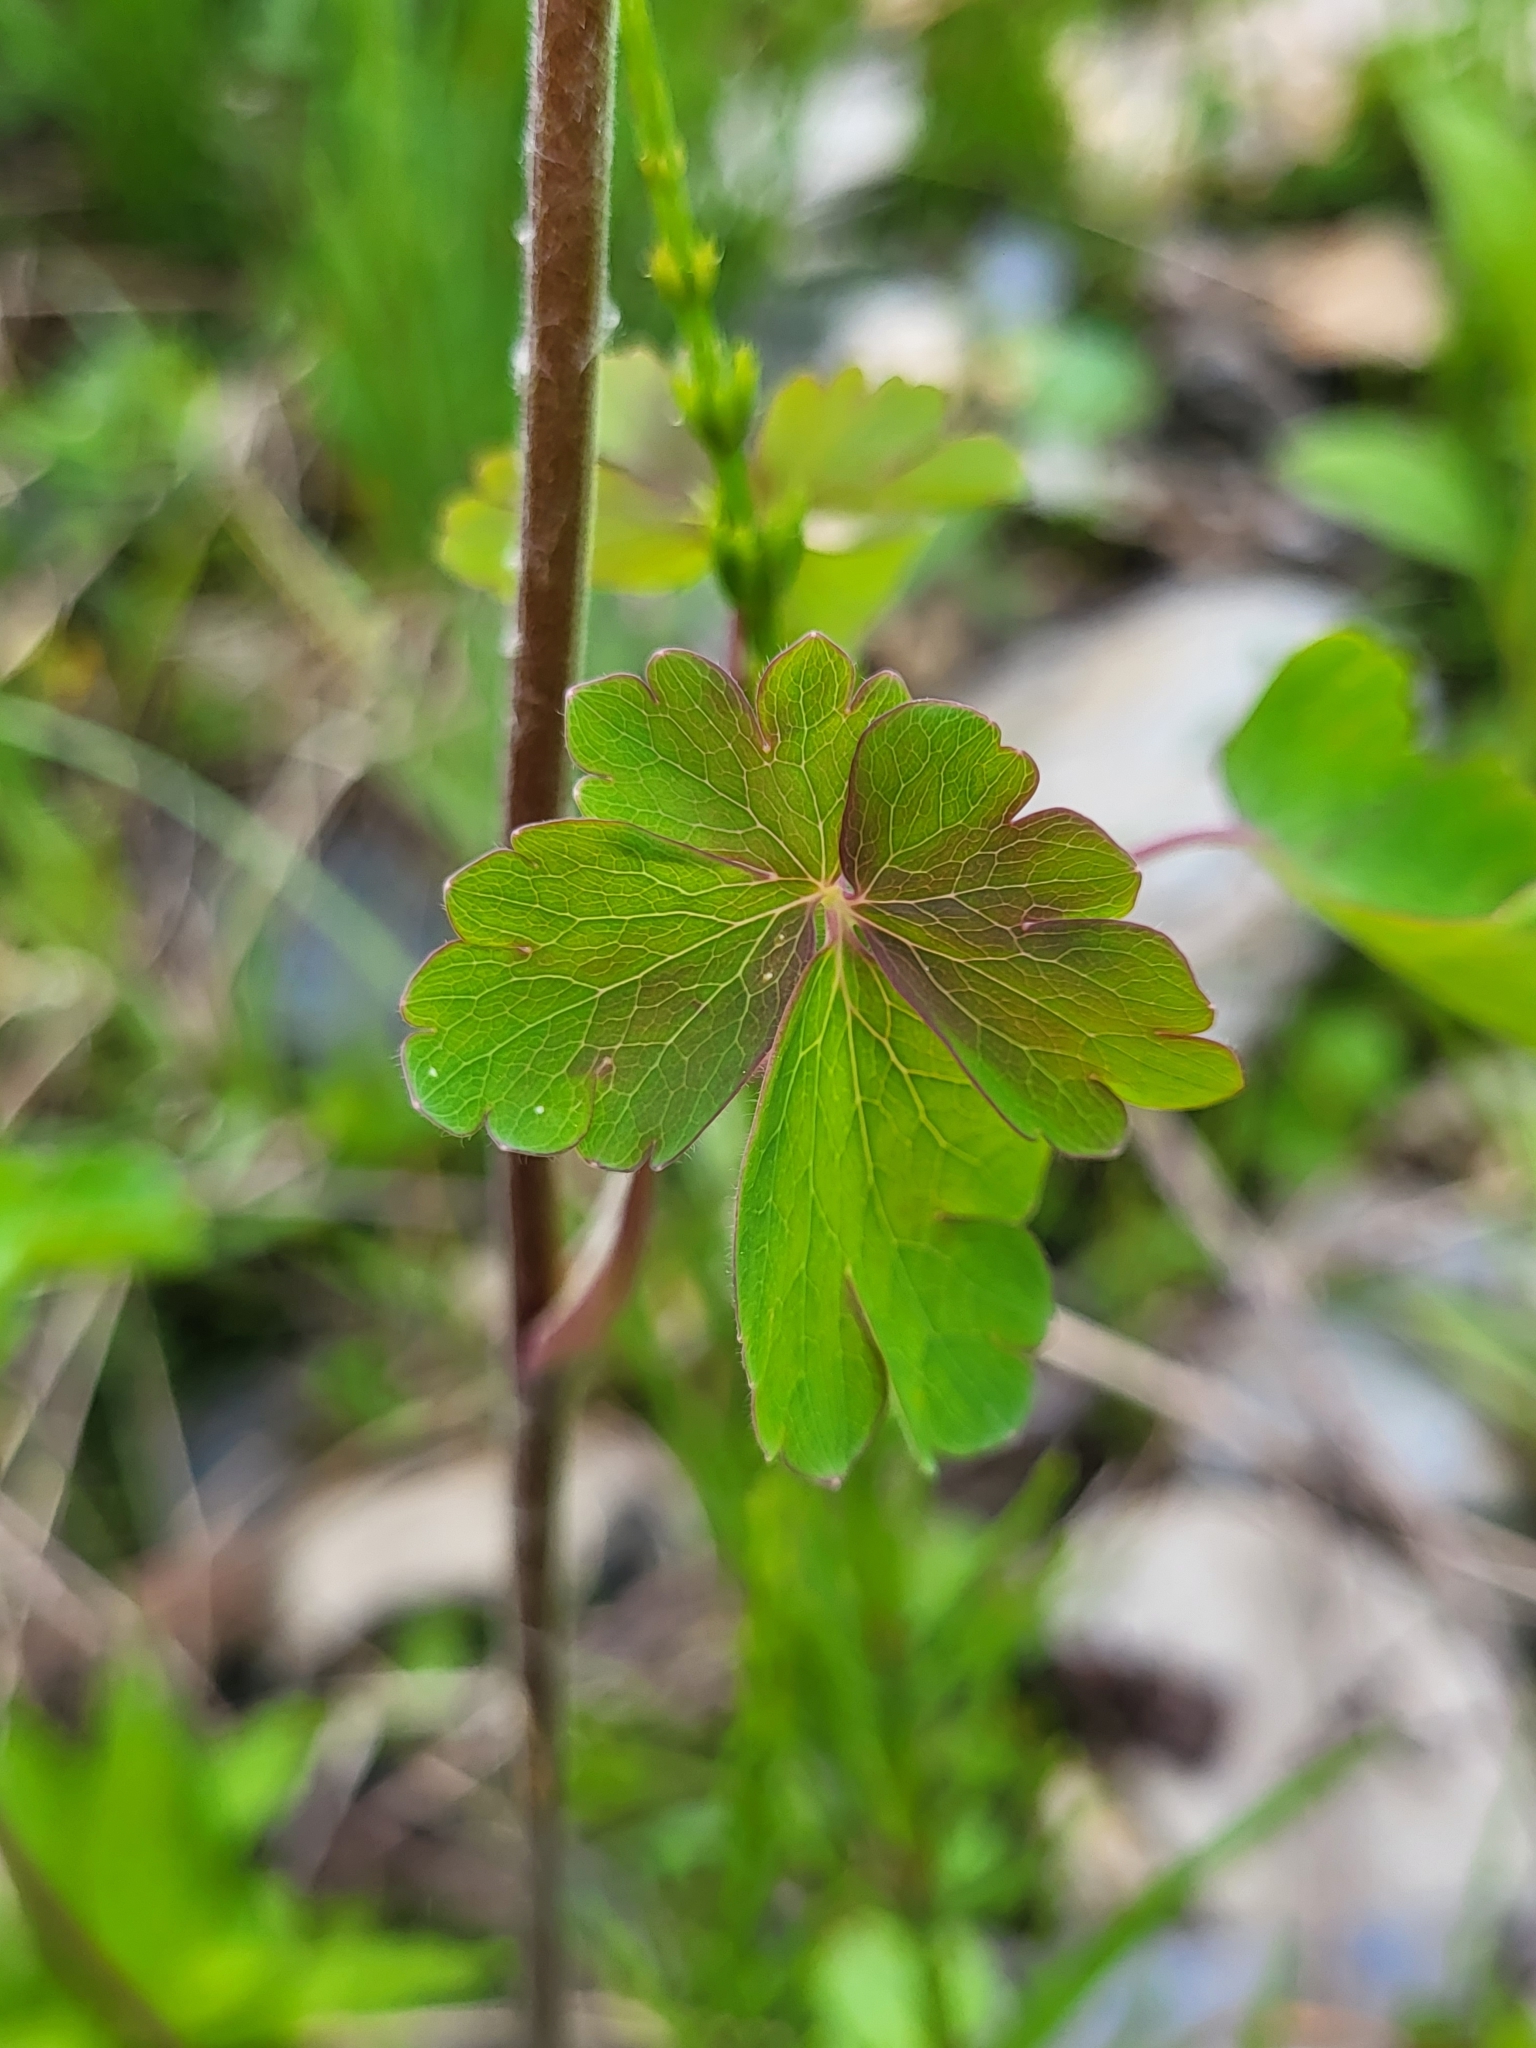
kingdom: Plantae
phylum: Tracheophyta
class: Magnoliopsida
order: Ranunculales
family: Ranunculaceae
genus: Aquilegia
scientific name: Aquilegia olympica
